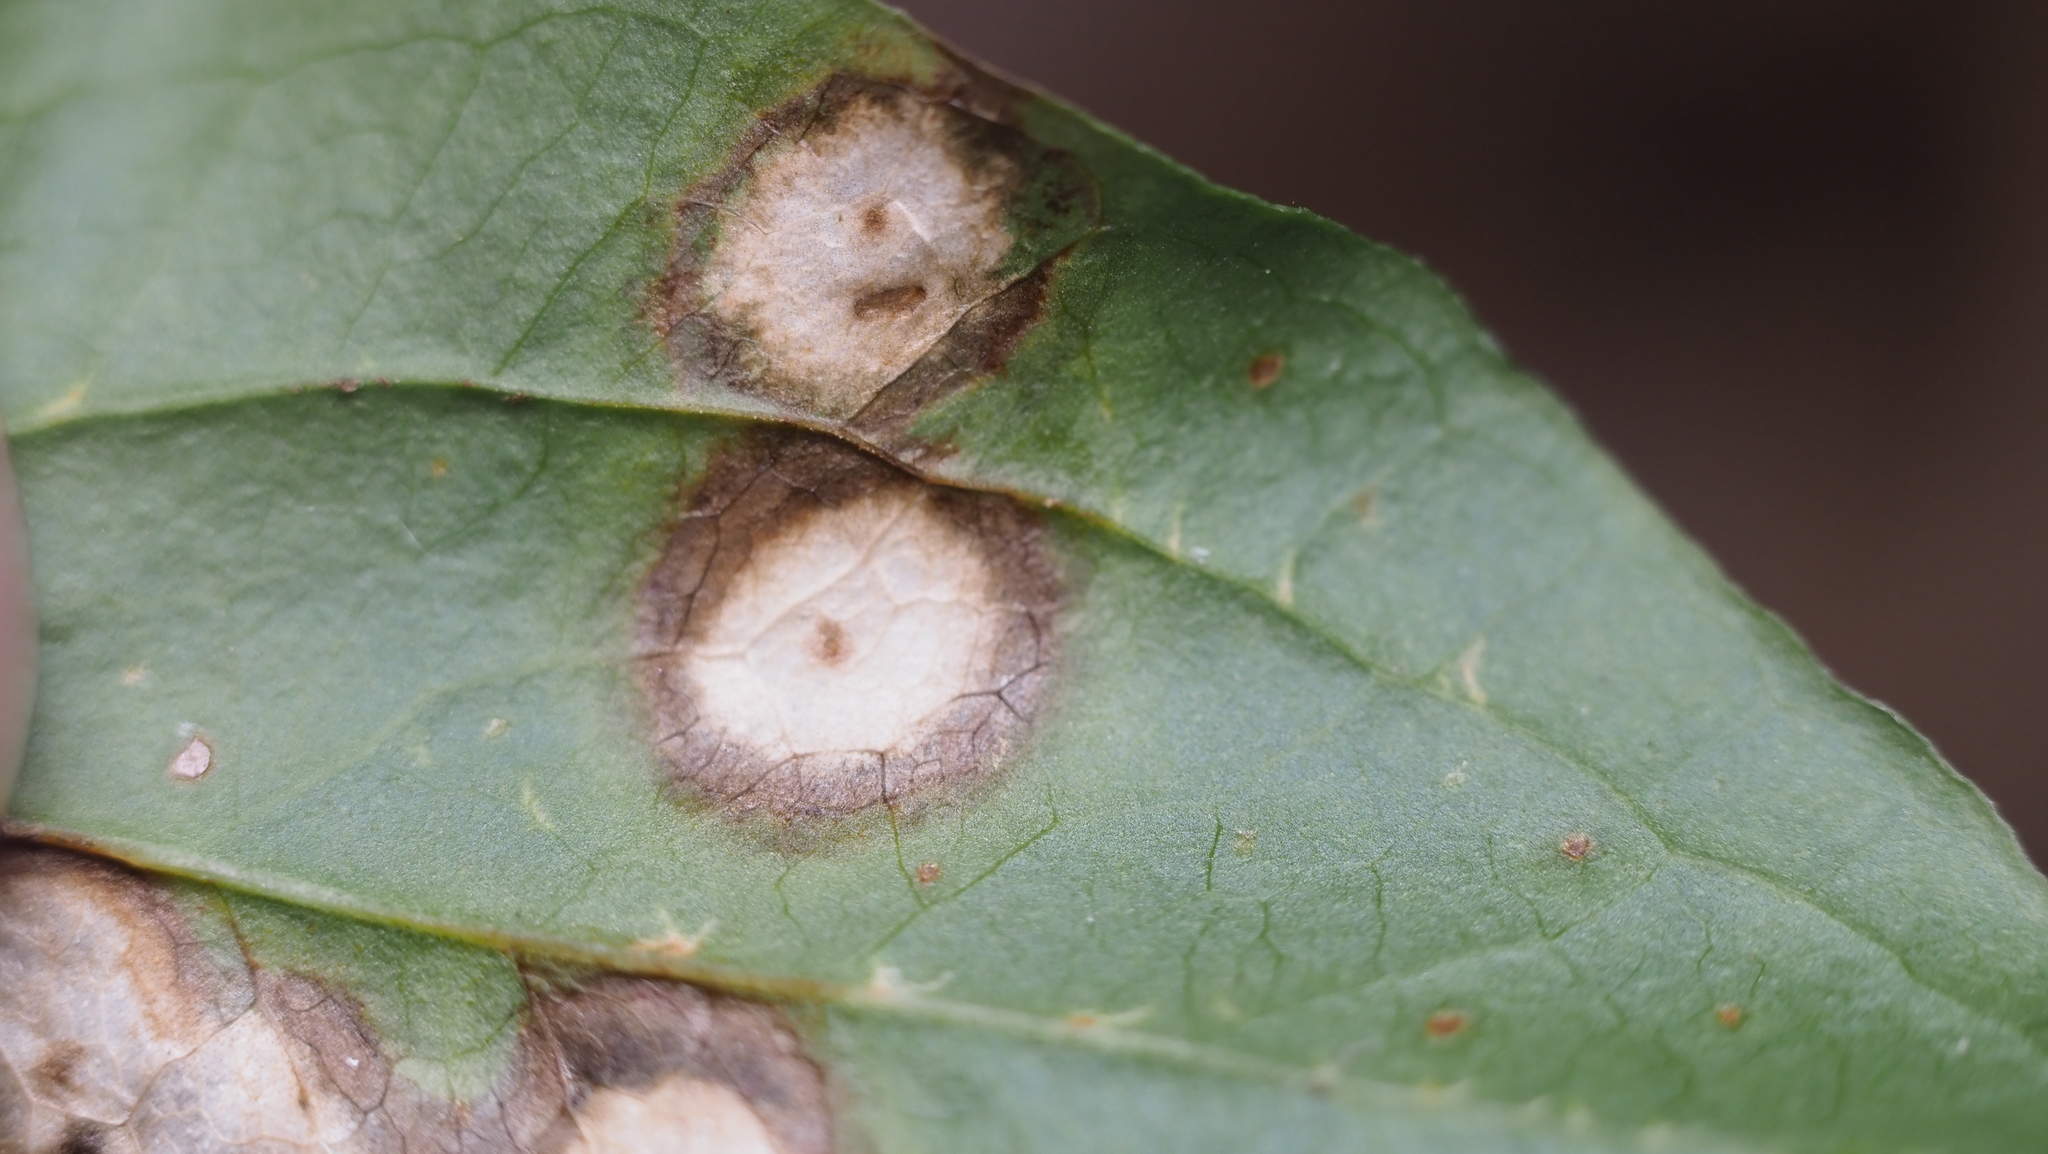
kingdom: Plantae
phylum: Tracheophyta
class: Liliopsida
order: Liliales
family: Smilacaceae
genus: Smilax
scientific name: Smilax tamnoides
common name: Hellfetter
